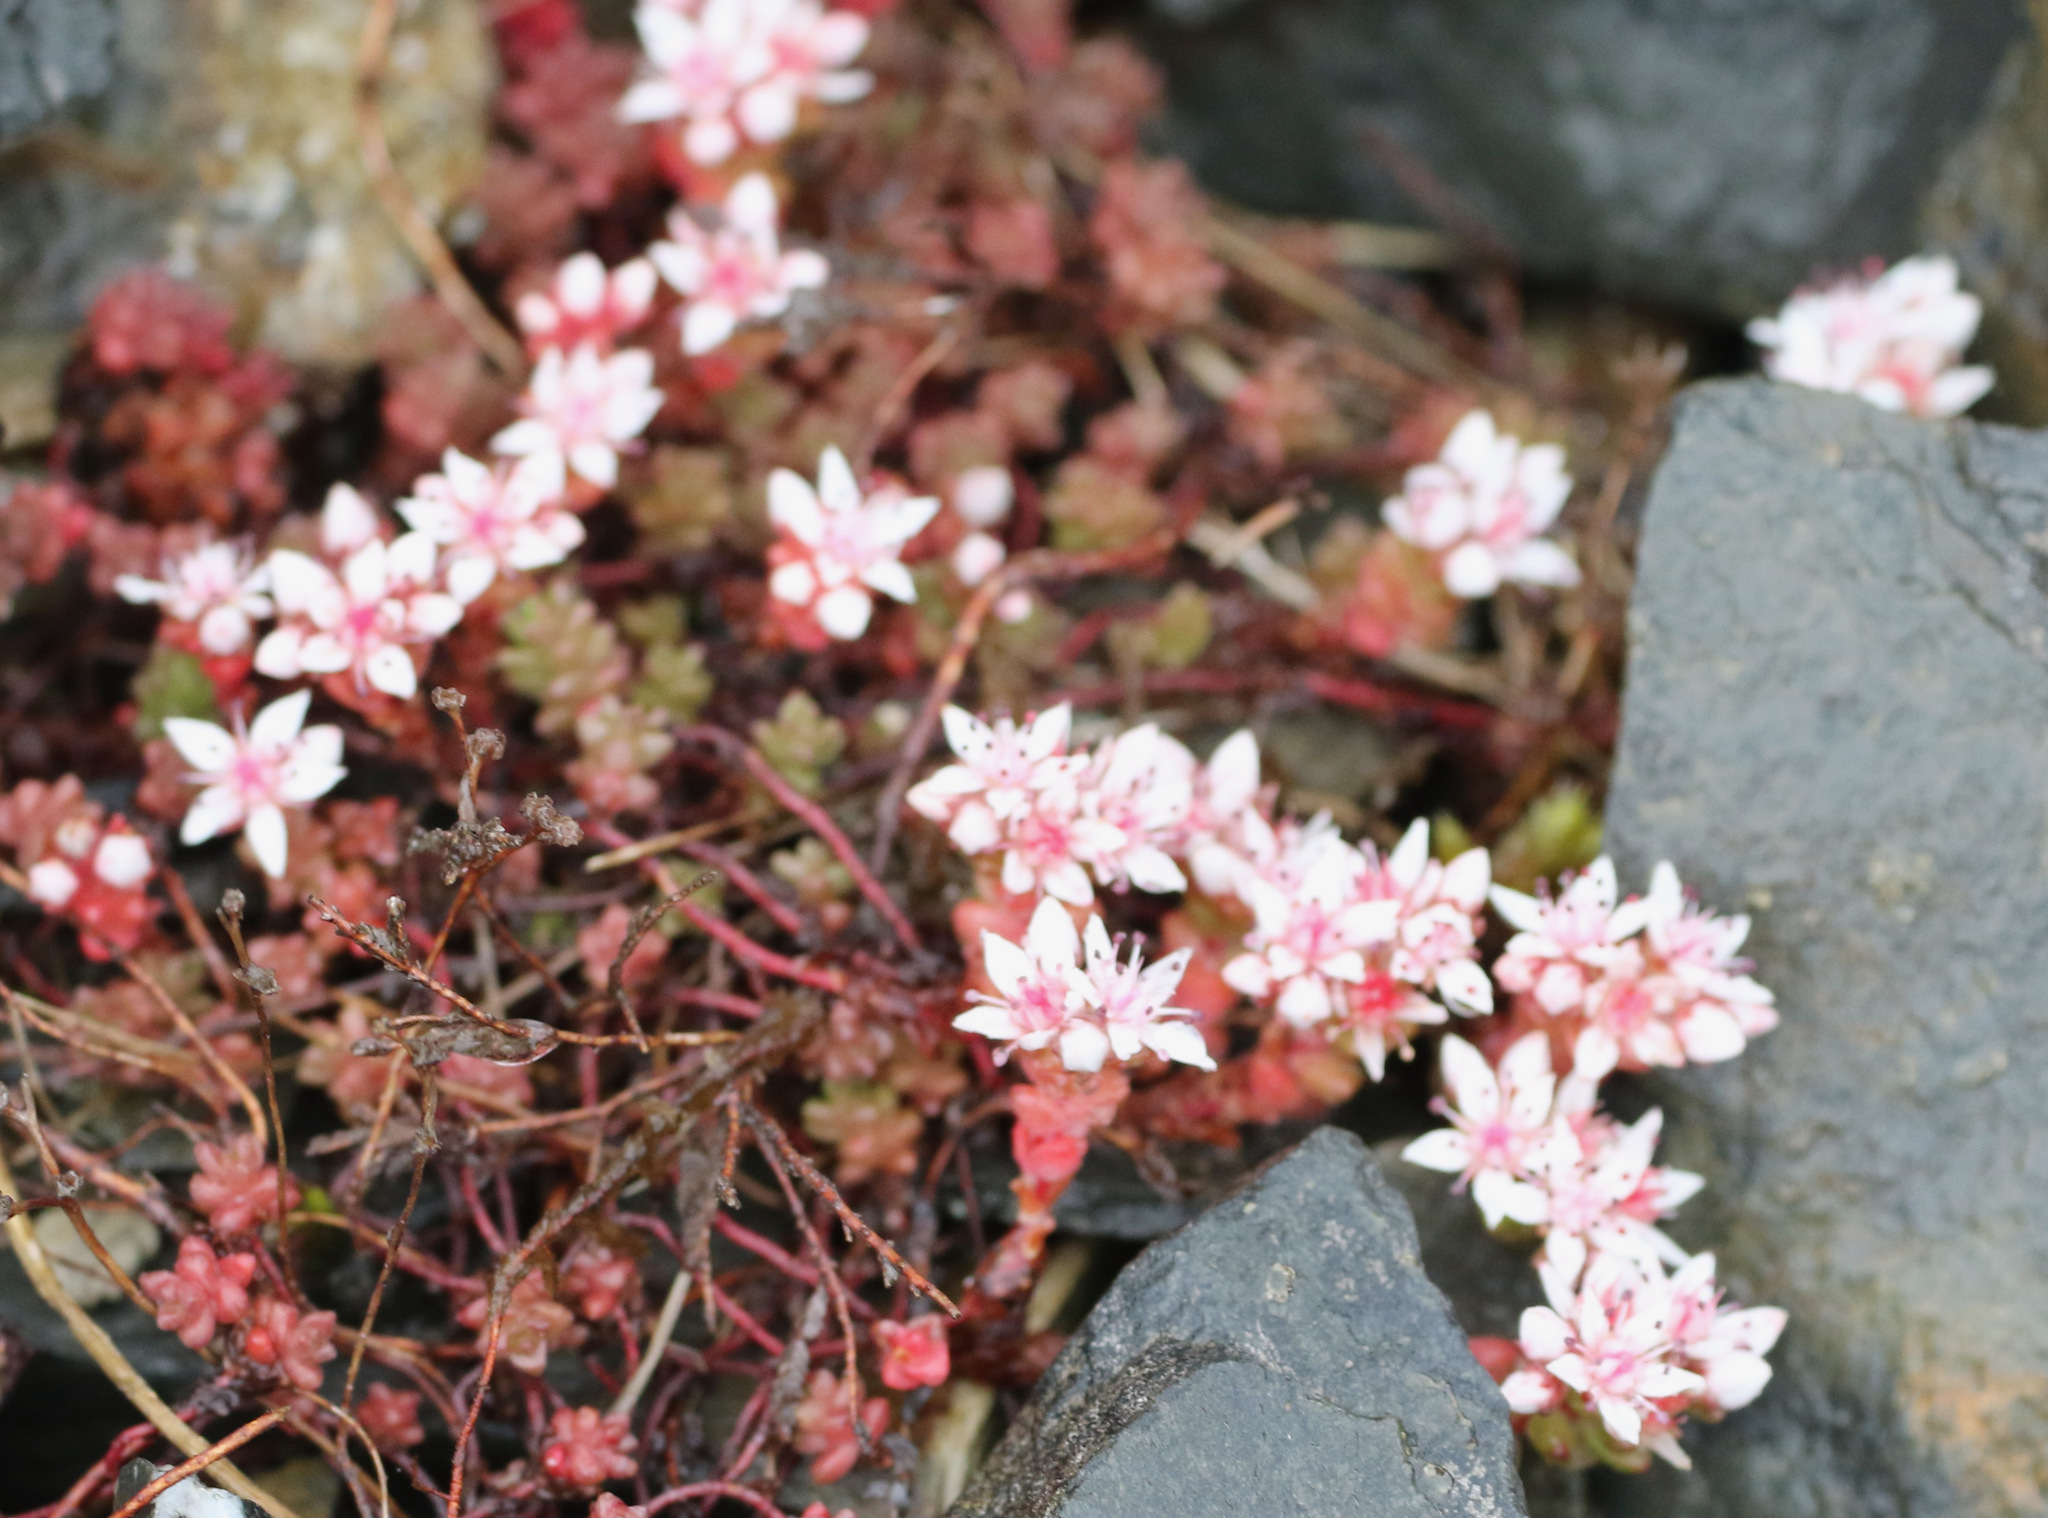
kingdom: Plantae
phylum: Tracheophyta
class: Magnoliopsida
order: Saxifragales
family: Crassulaceae
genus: Sedum
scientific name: Sedum anglicum
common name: English stonecrop
